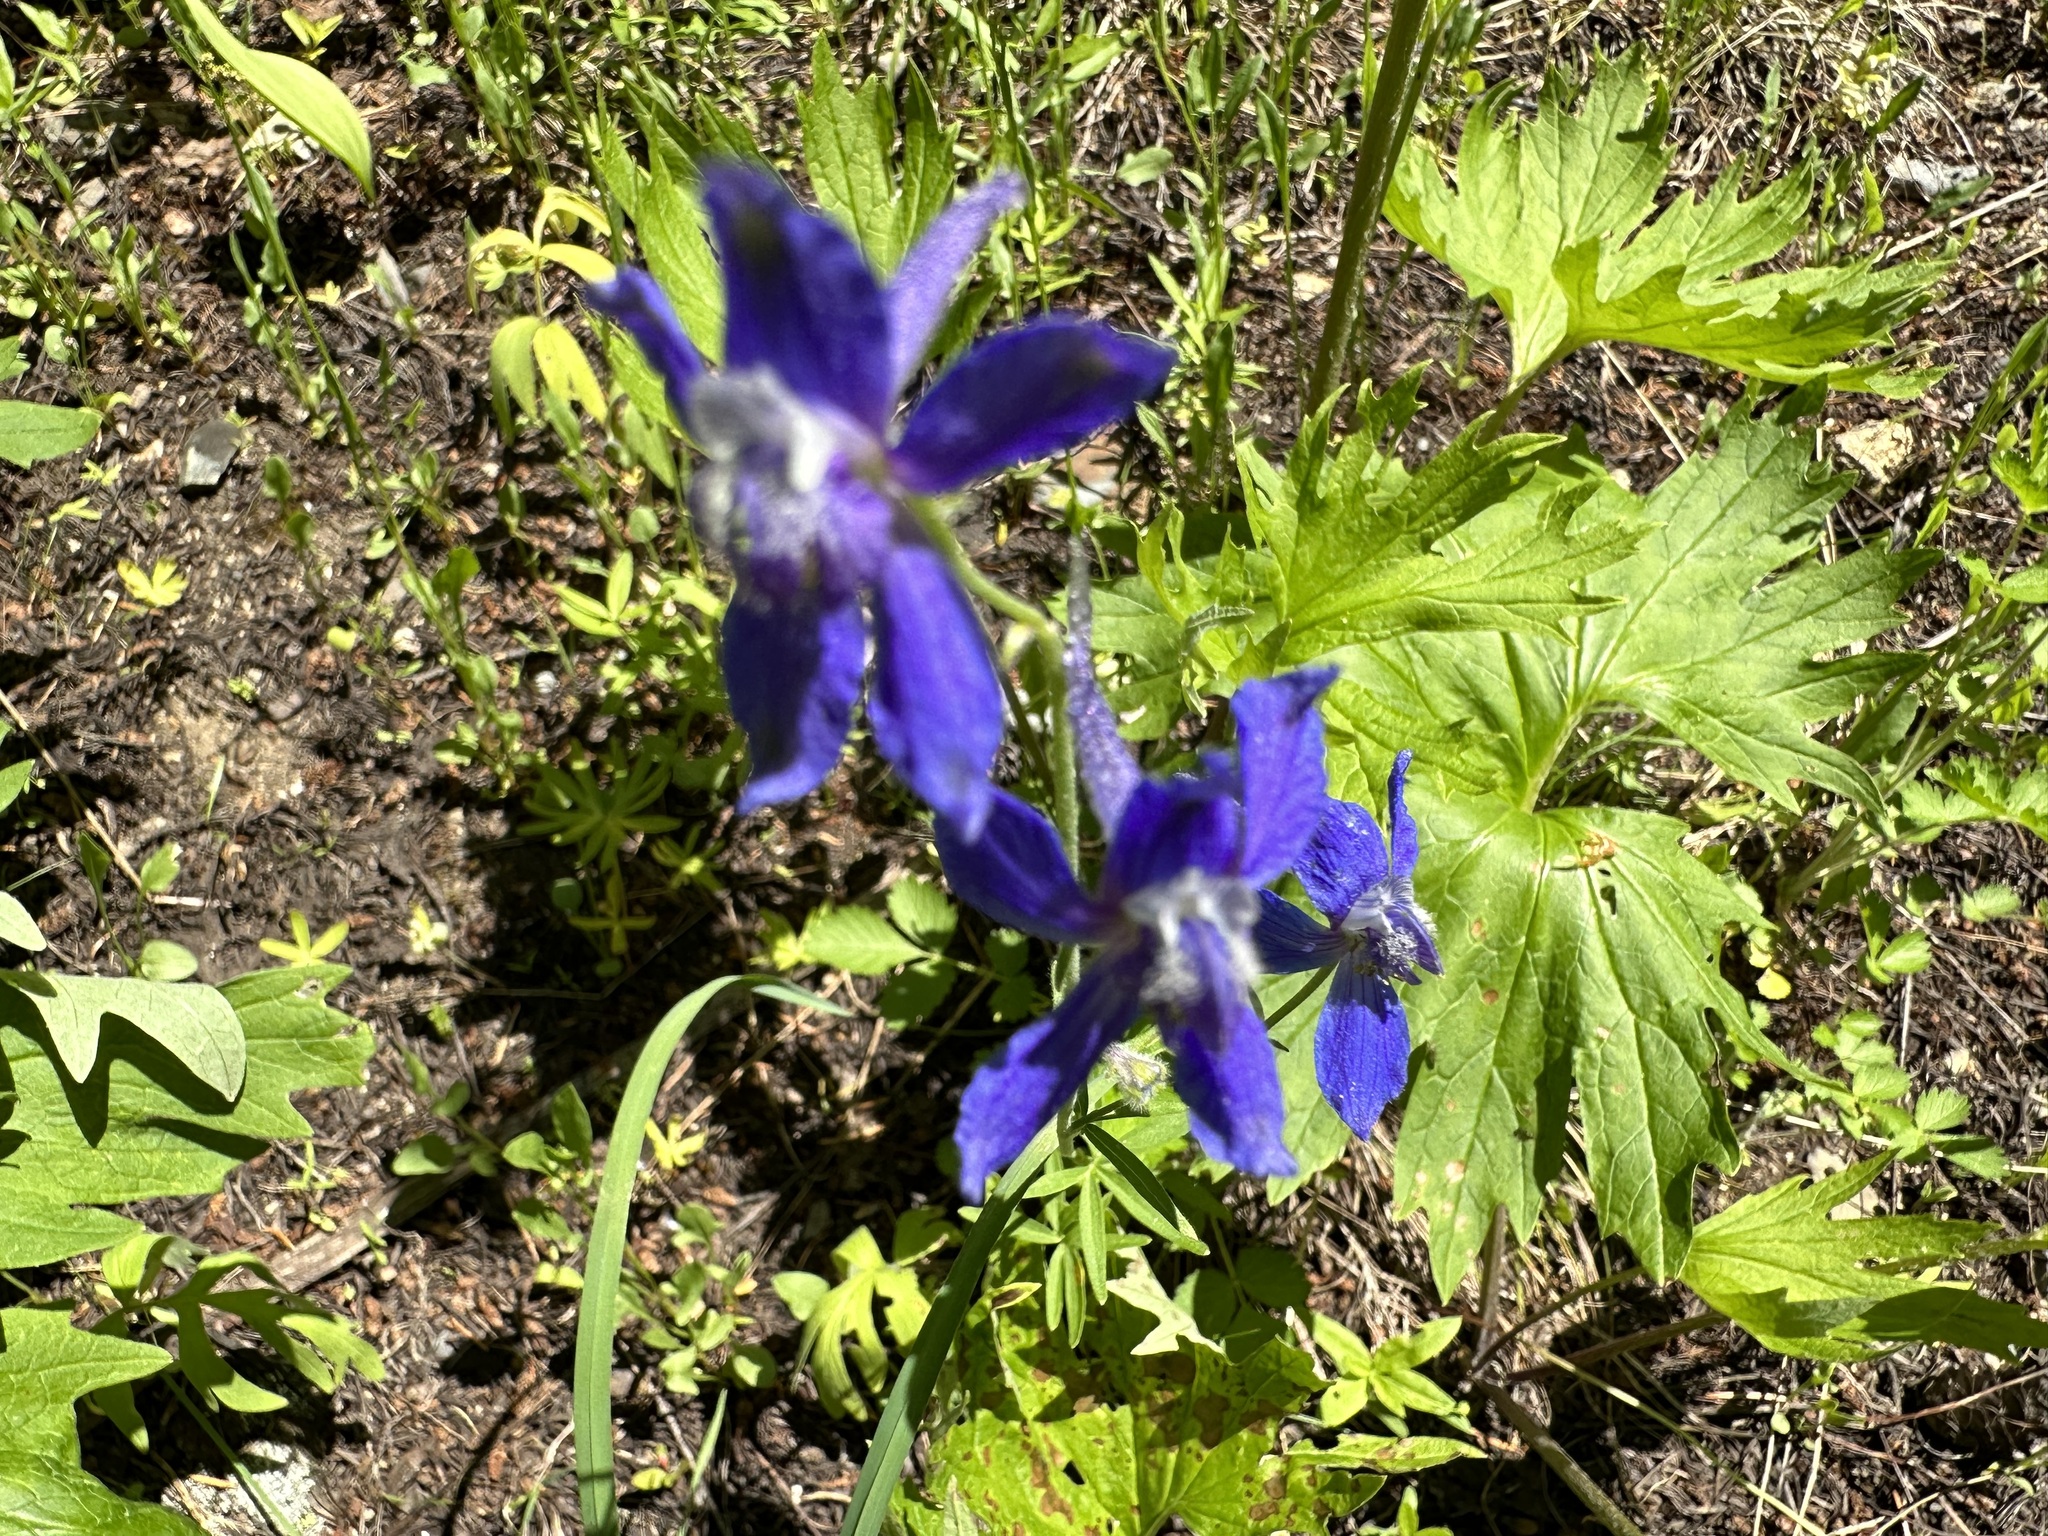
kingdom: Plantae
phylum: Tracheophyta
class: Magnoliopsida
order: Ranunculales
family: Ranunculaceae
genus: Delphinium
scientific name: Delphinium nuttallianum
